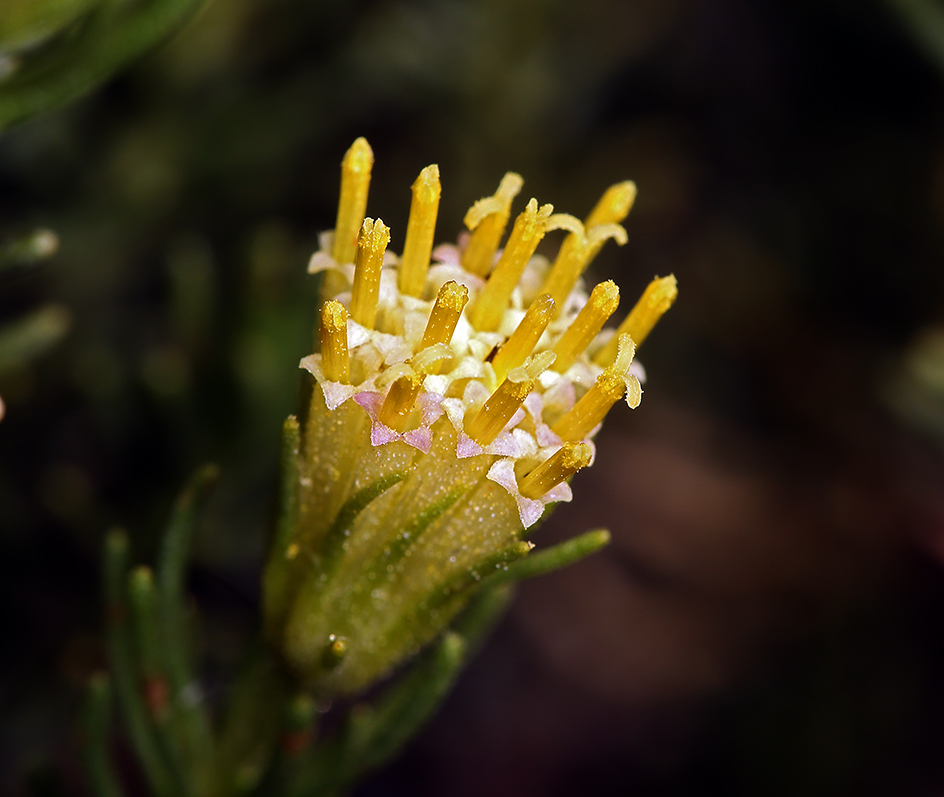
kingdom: Plantae
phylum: Tracheophyta
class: Magnoliopsida
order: Asterales
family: Asteraceae
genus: Peucephyllum
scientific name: Peucephyllum schottii
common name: Pygmy-cedar
